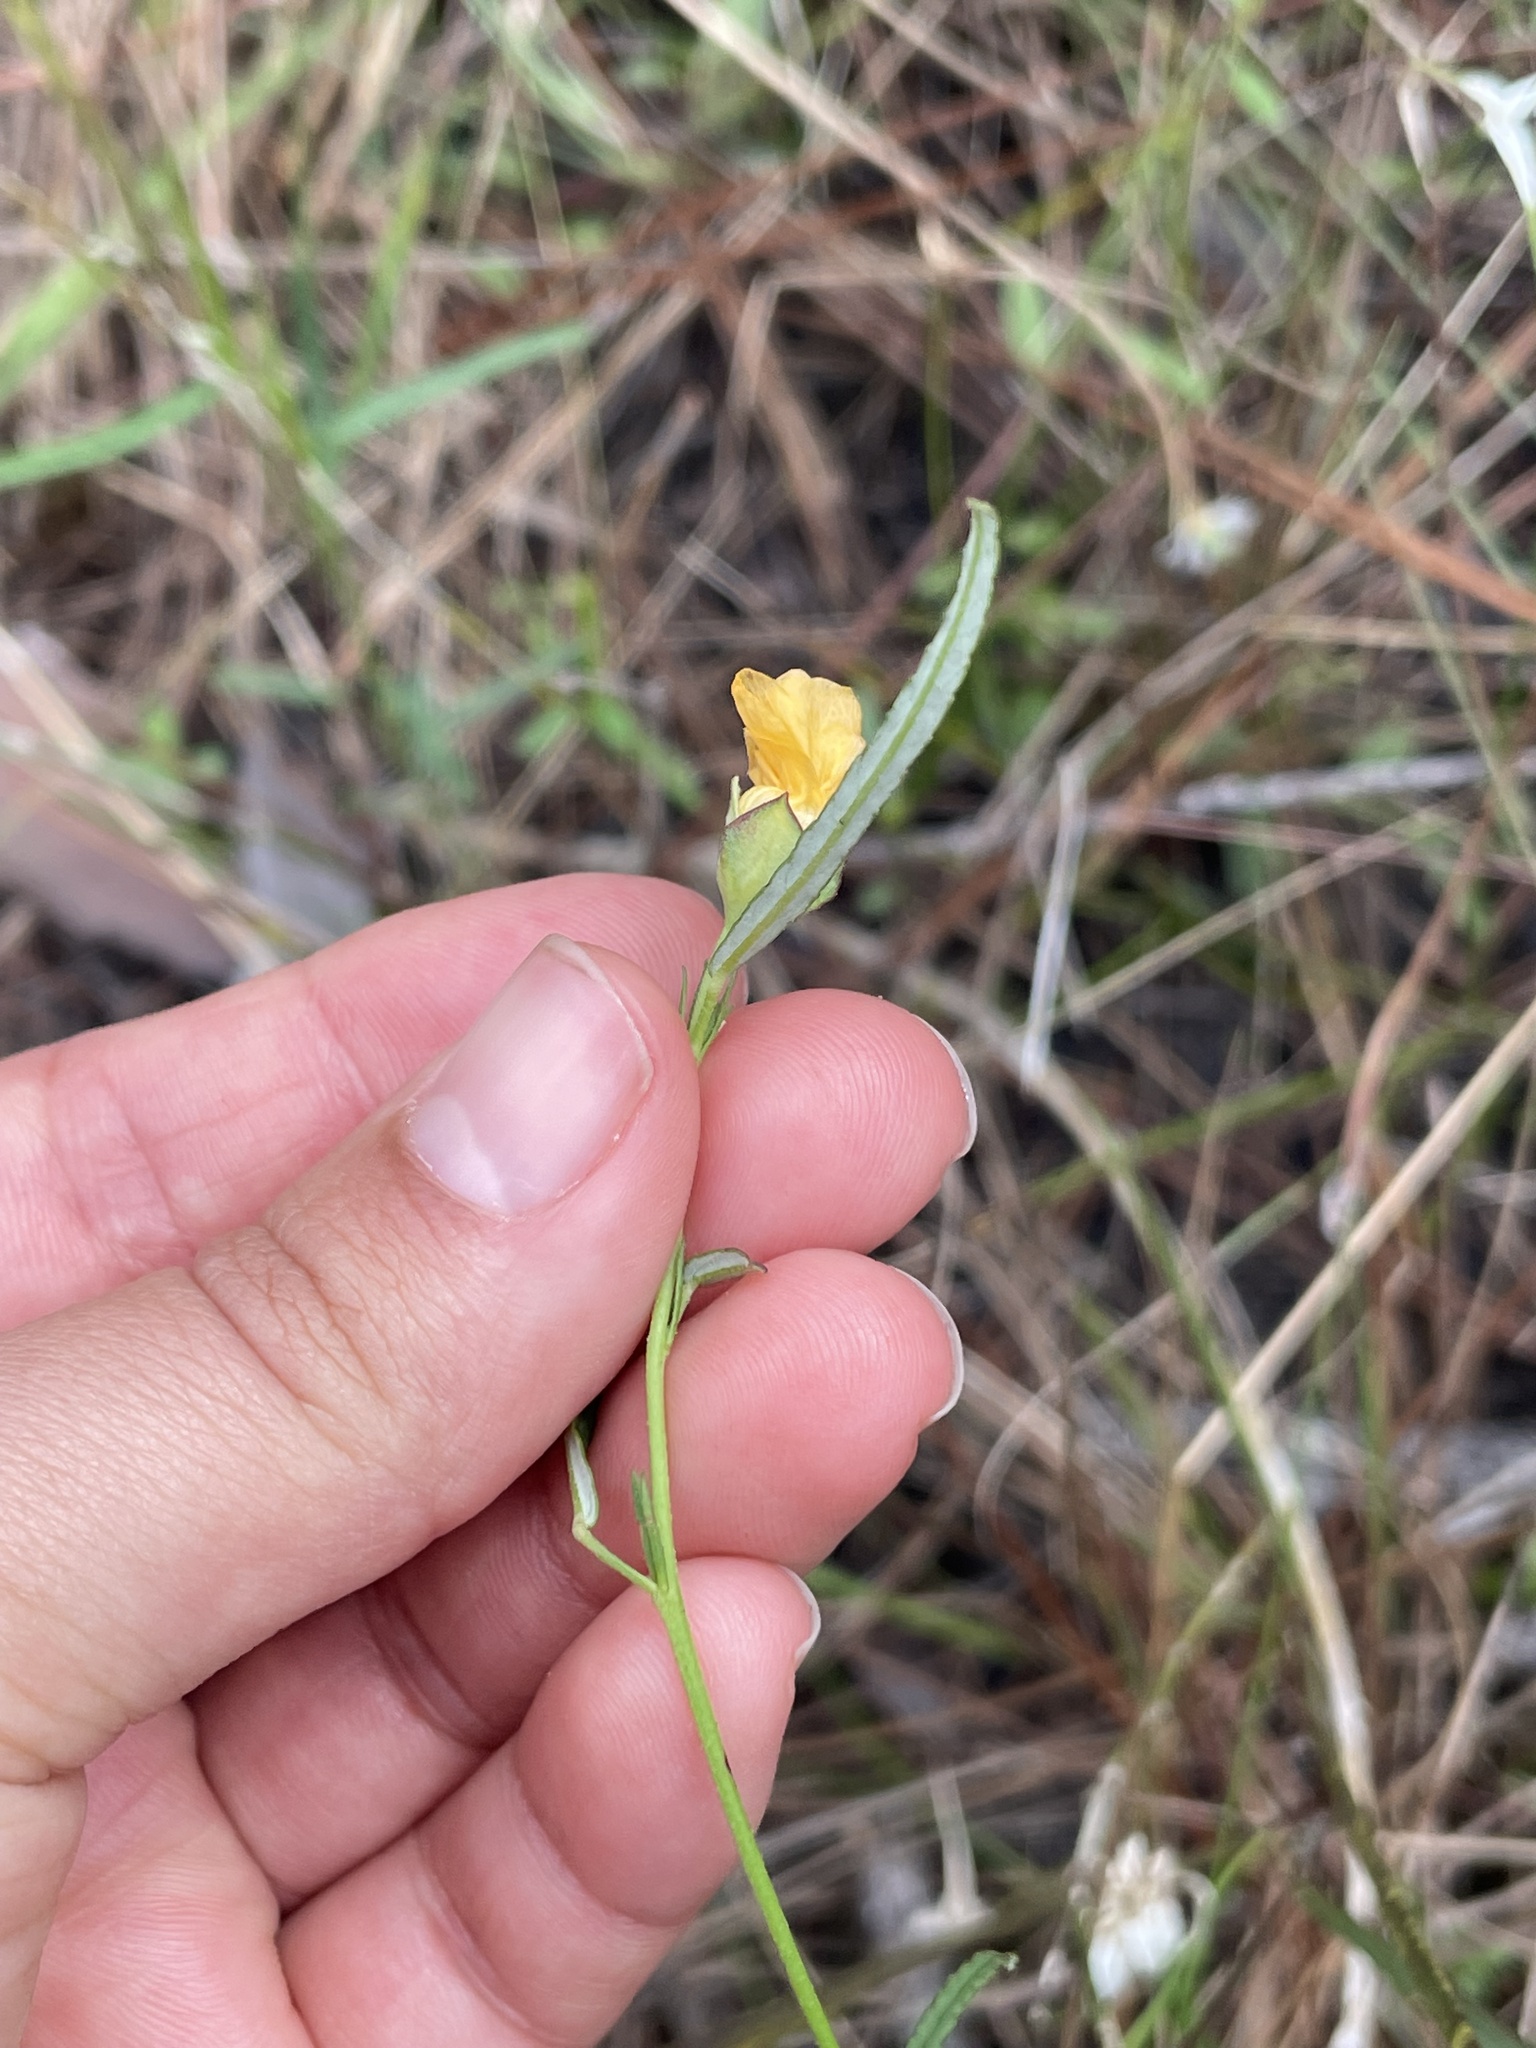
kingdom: Plantae
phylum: Tracheophyta
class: Magnoliopsida
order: Malvales
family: Malvaceae
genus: Sida
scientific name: Sida elliottii
